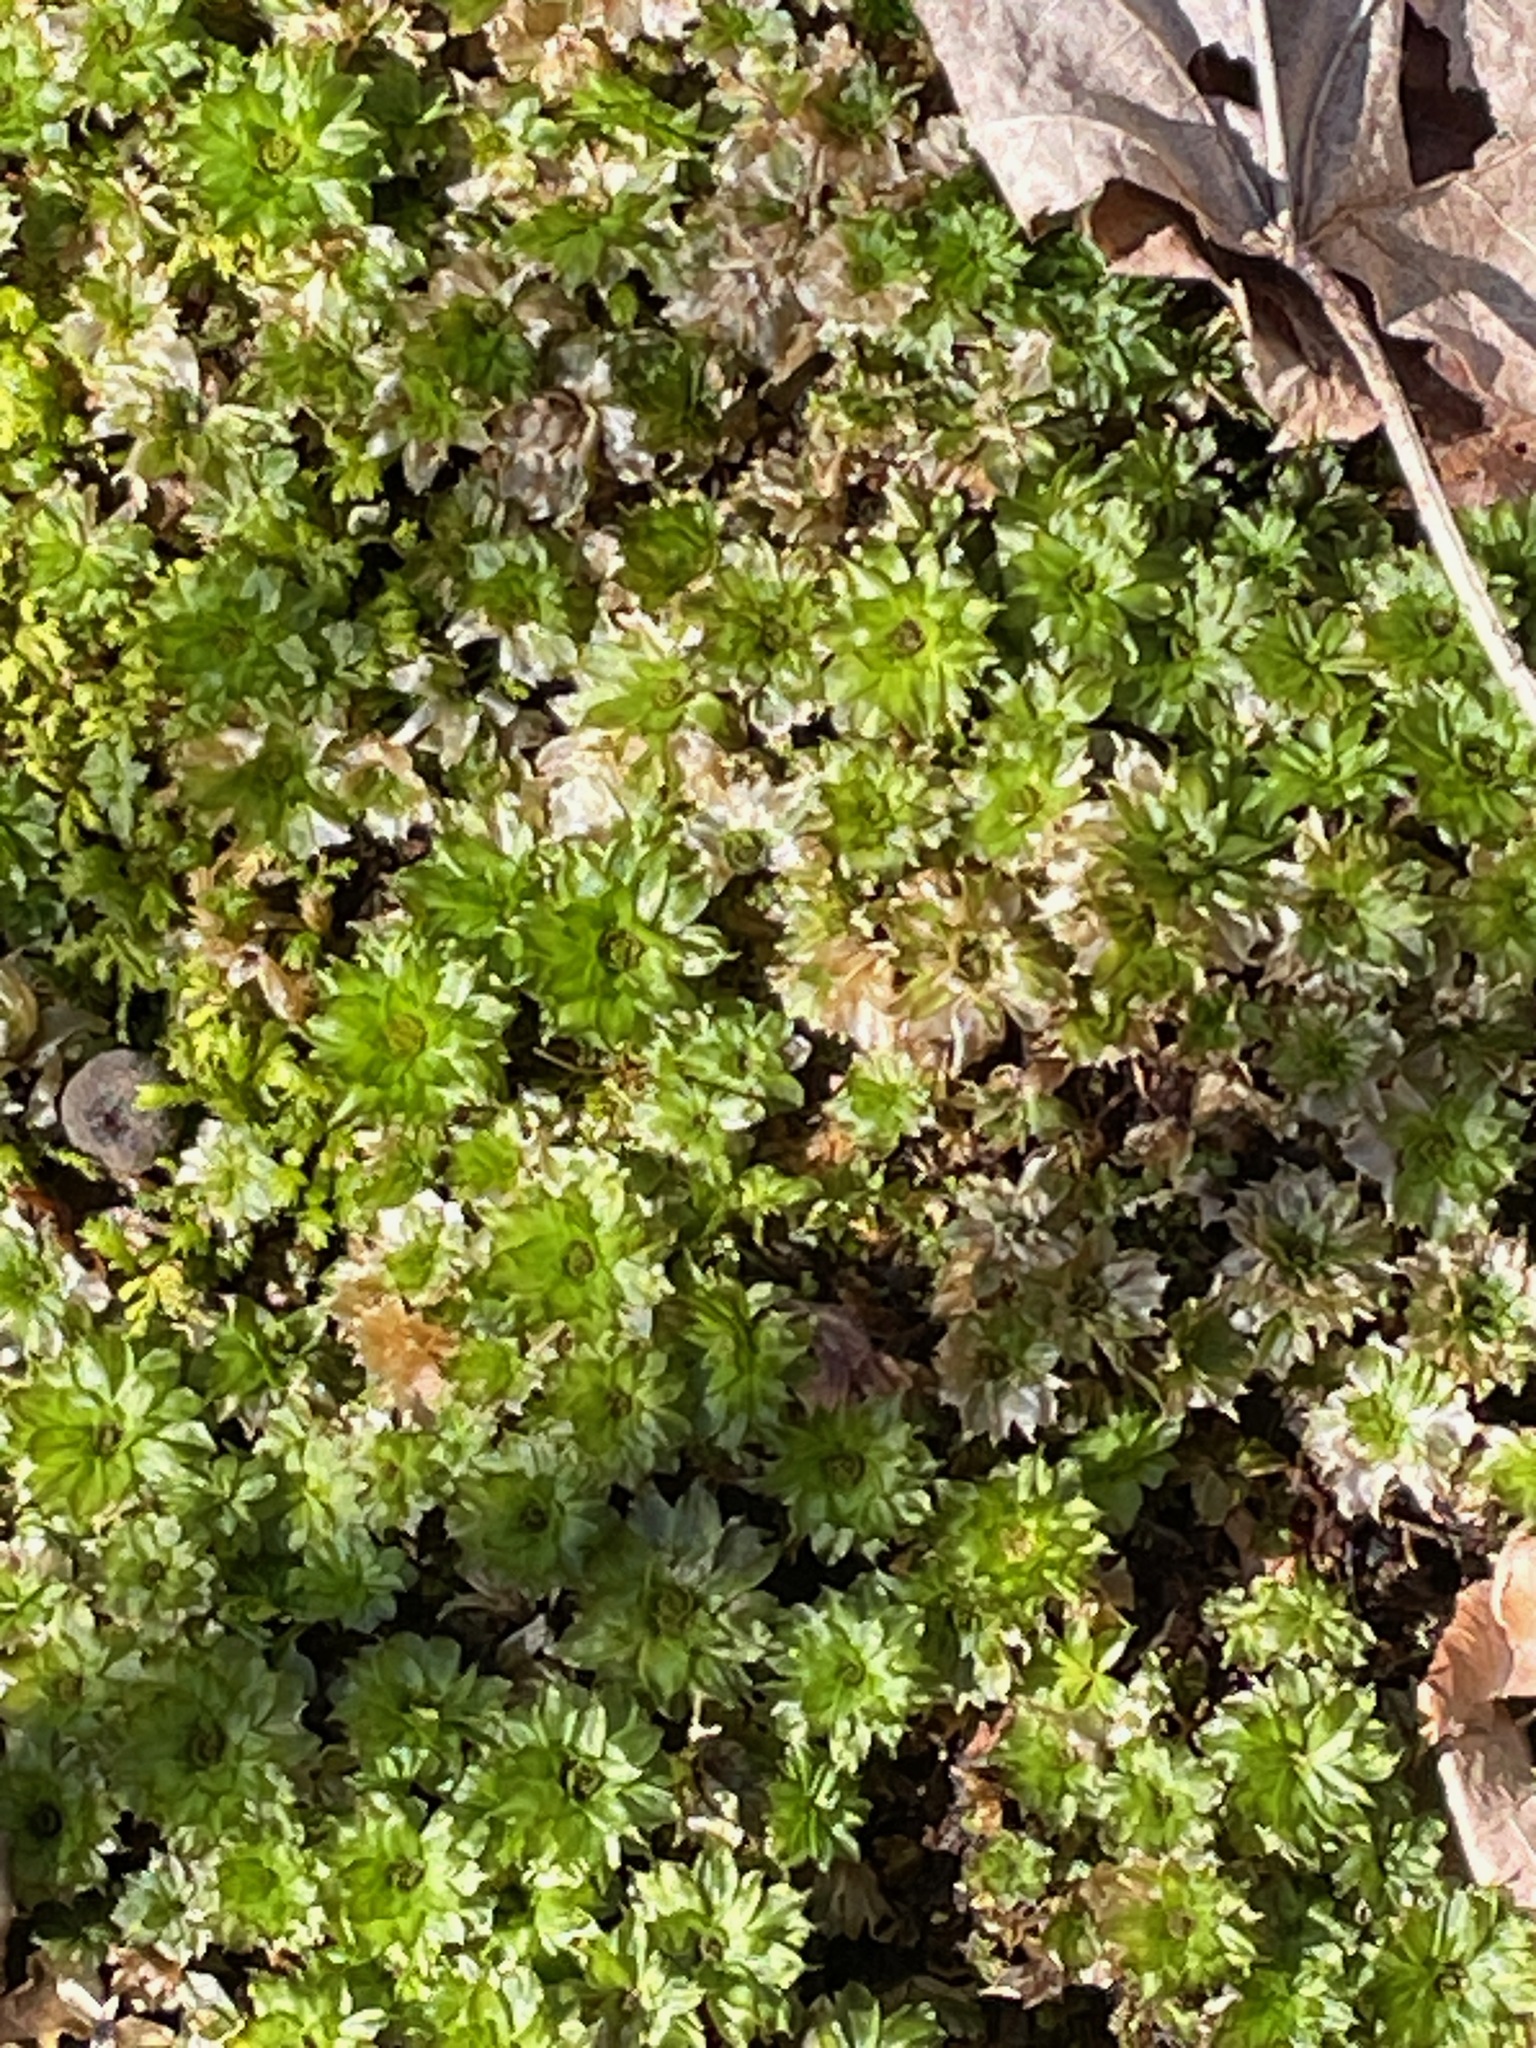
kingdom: Plantae
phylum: Bryophyta
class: Bryopsida
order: Bryales
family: Bryaceae
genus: Rhodobryum
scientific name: Rhodobryum ontariense
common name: Ontario rhodobryum moss
